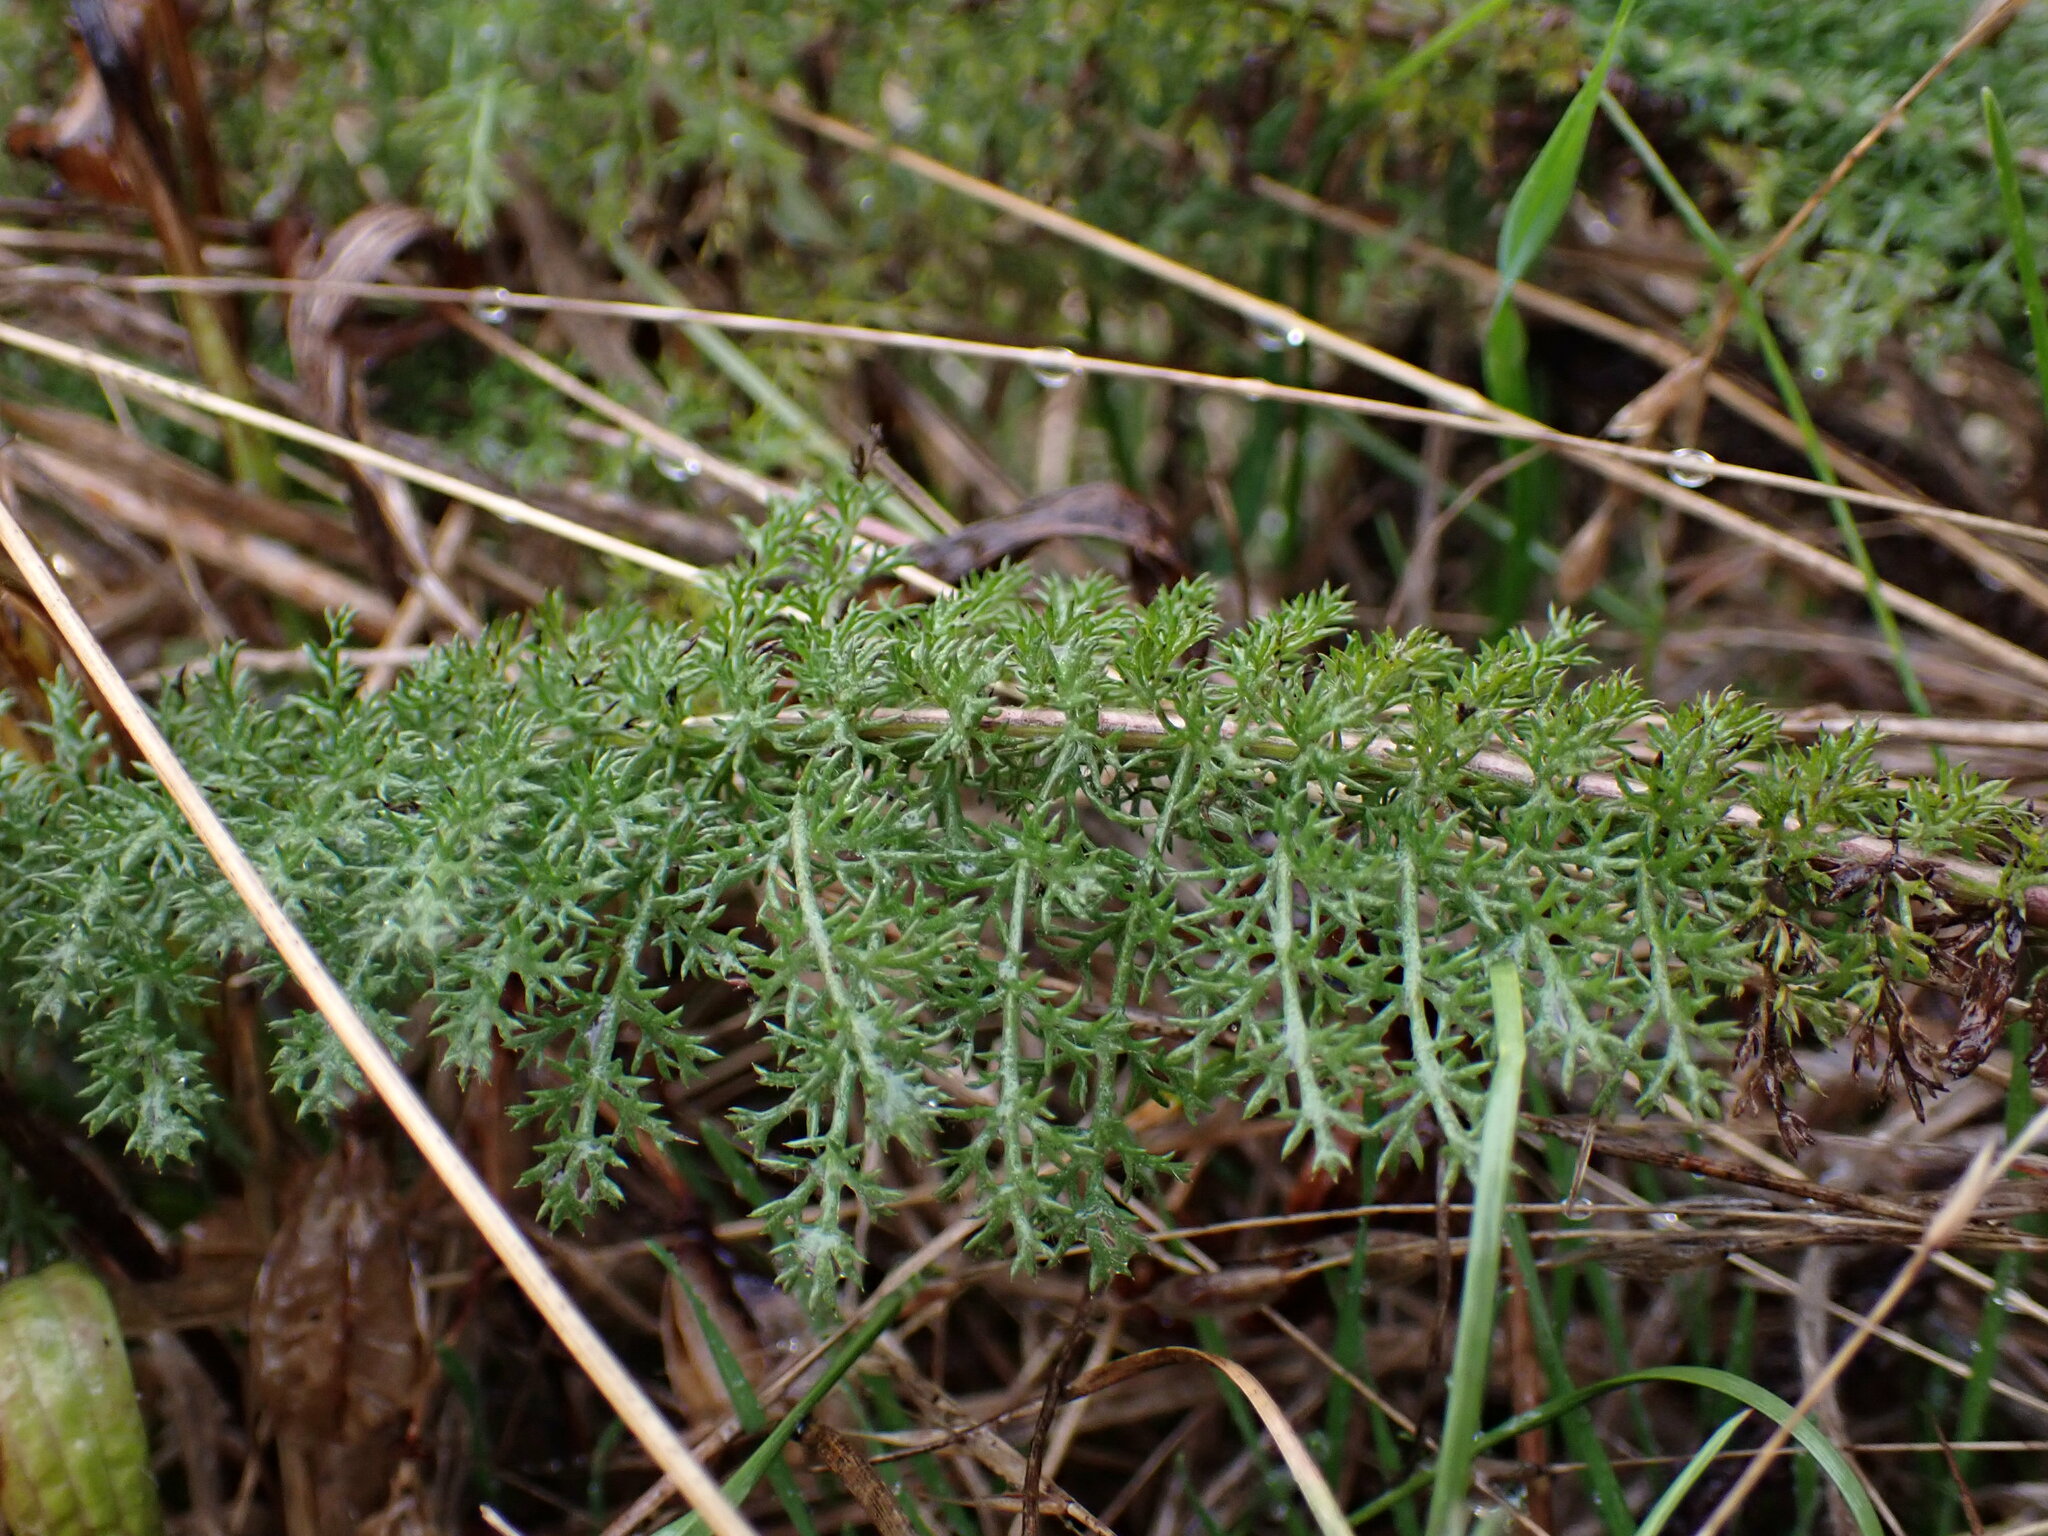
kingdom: Plantae
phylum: Tracheophyta
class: Magnoliopsida
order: Asterales
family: Asteraceae
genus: Achillea
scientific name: Achillea millefolium
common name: Yarrow
